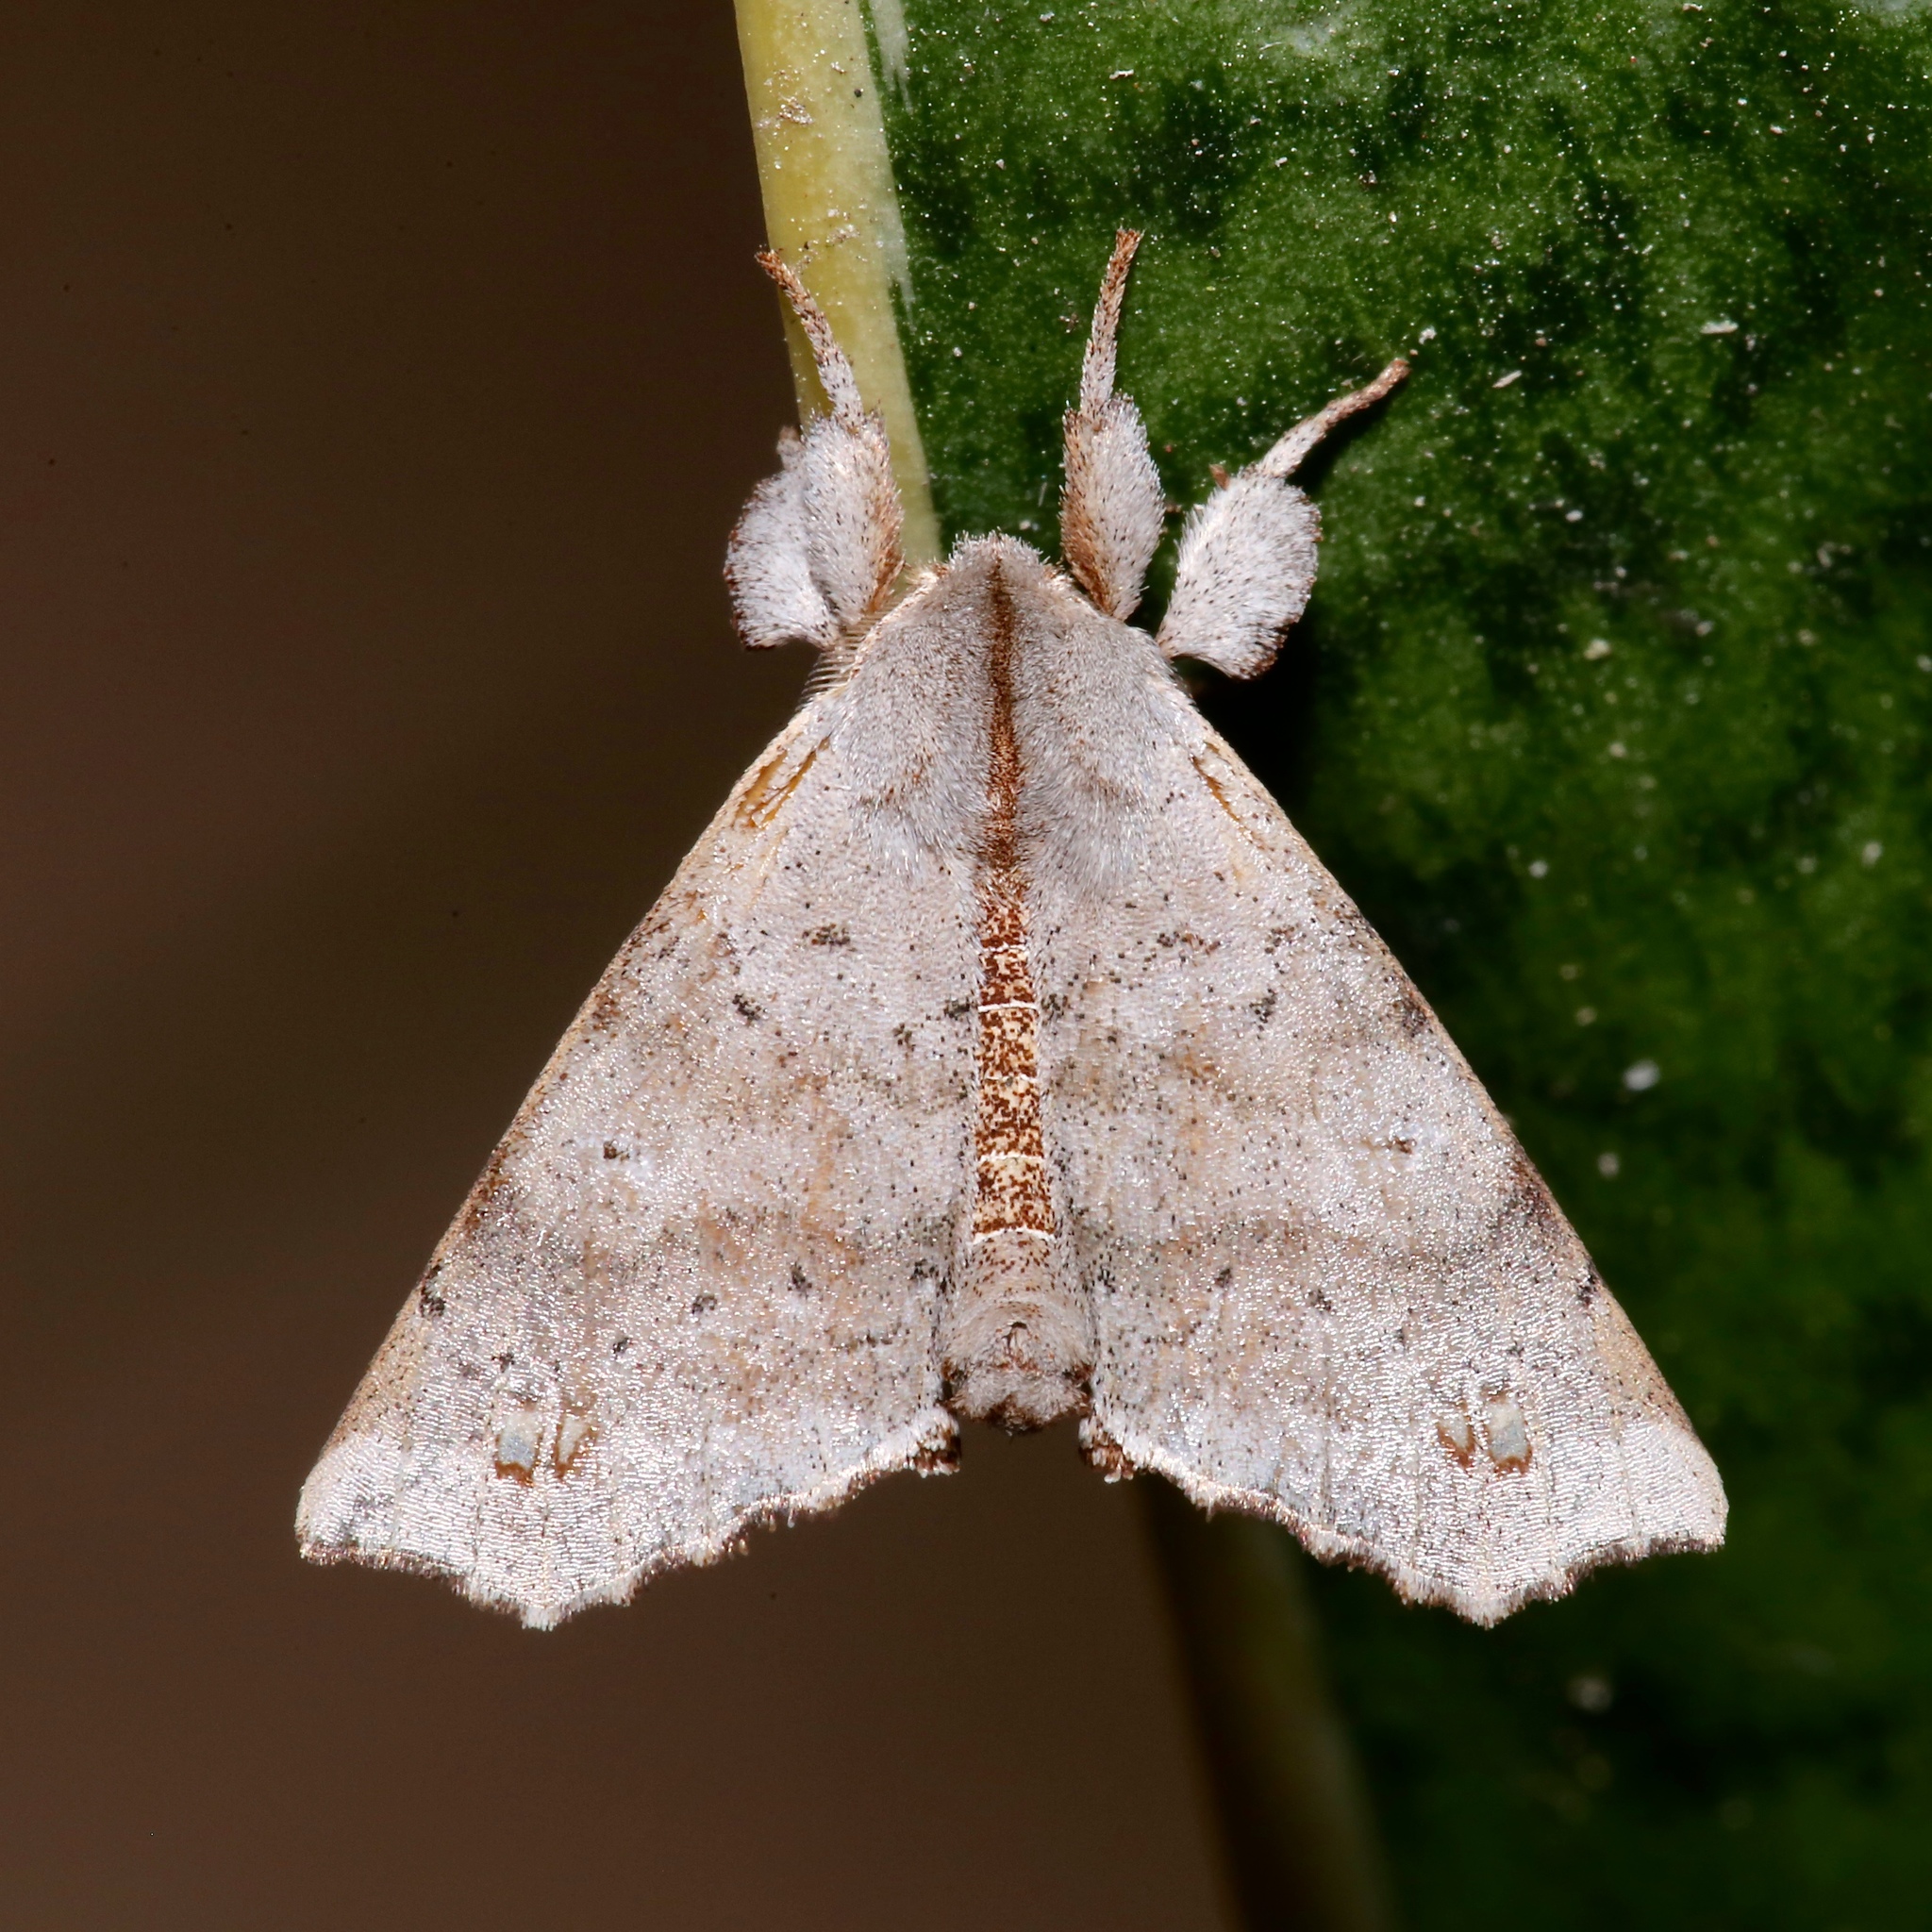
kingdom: Animalia
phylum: Arthropoda
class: Insecta
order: Lepidoptera
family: Apatelodidae
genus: Olceclostera
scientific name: Olceclostera angelica
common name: Angel moth
